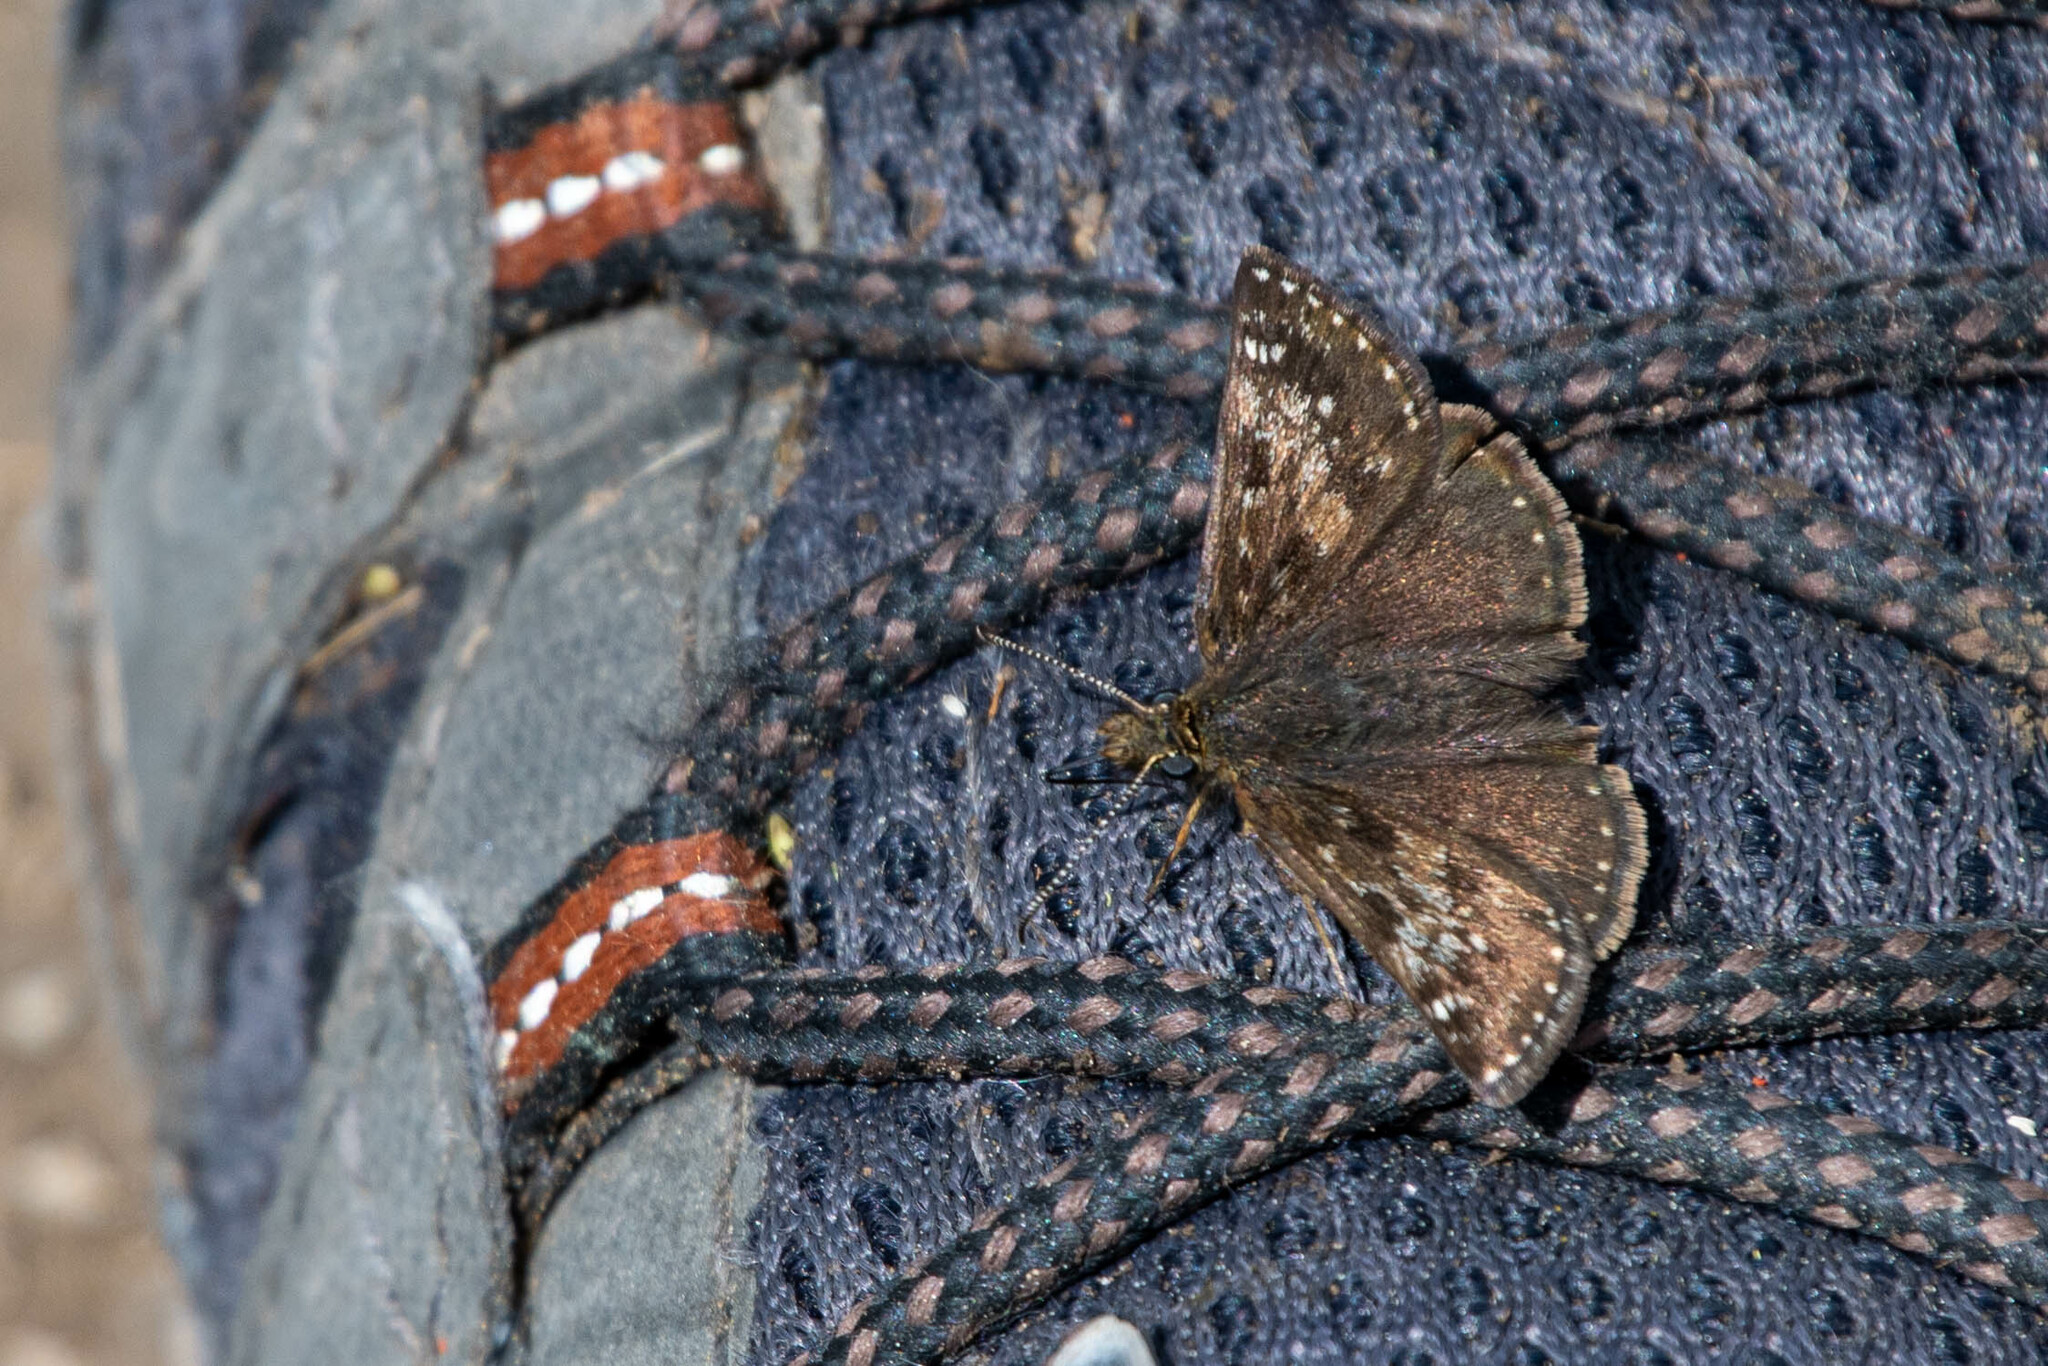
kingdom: Animalia
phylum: Arthropoda
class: Insecta
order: Lepidoptera
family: Hesperiidae
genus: Erynnis
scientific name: Erynnis tages
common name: Dingy skipper
